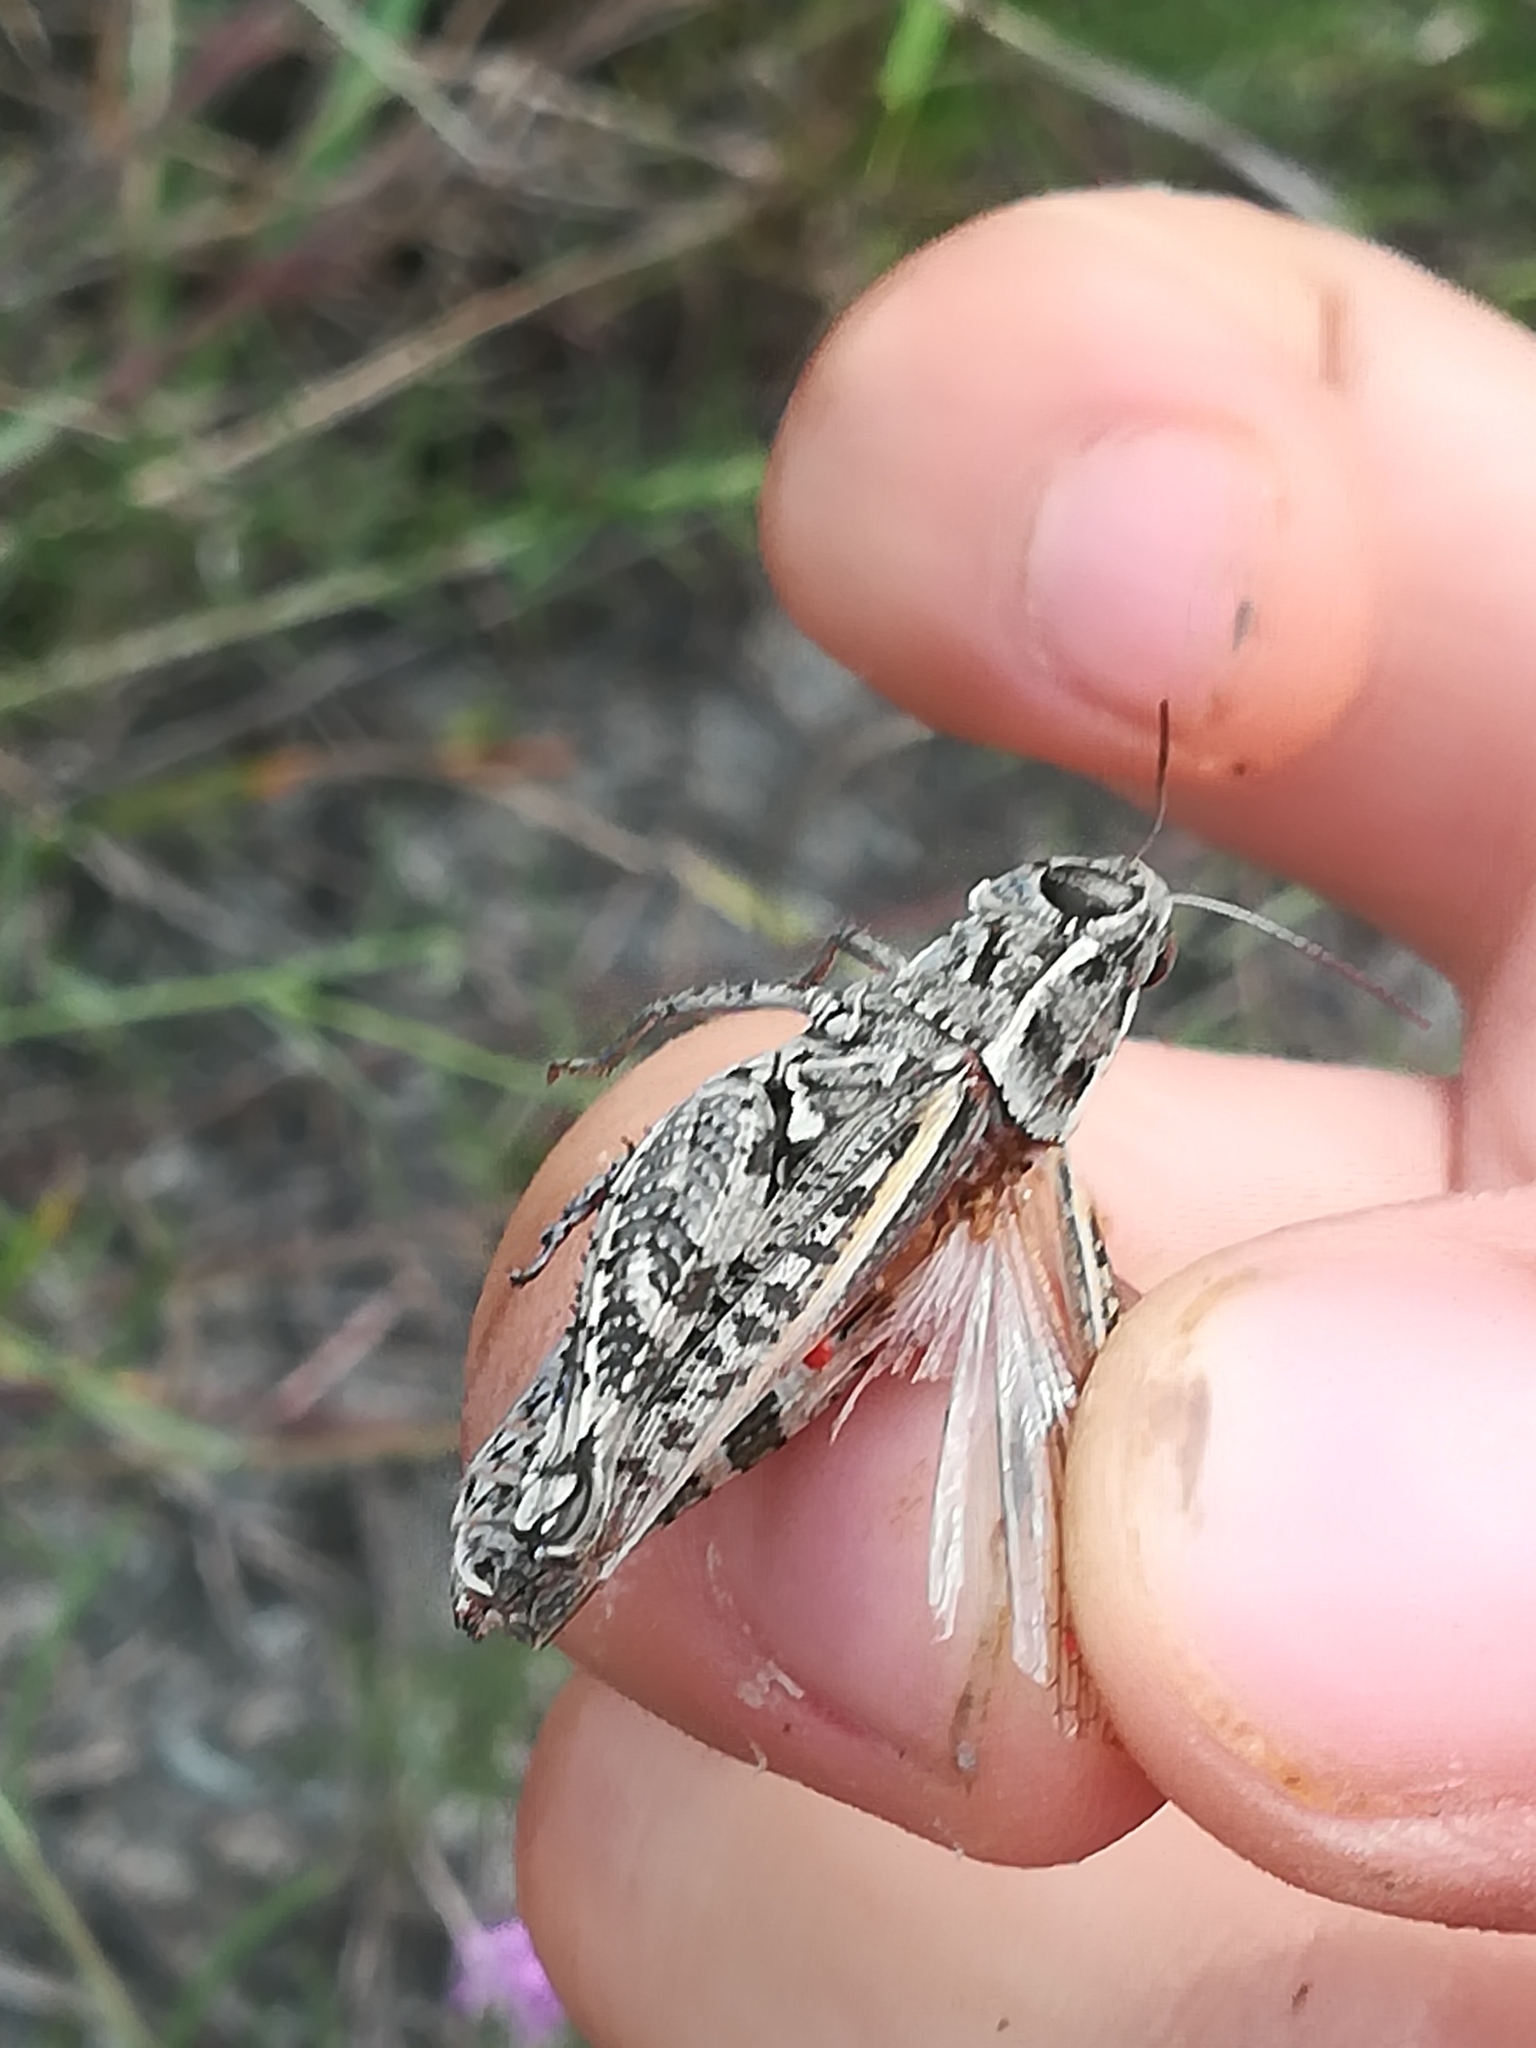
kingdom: Animalia
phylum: Arthropoda
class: Insecta
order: Orthoptera
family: Acrididae
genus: Calliptamus
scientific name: Calliptamus siciliae
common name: Pygmy pincer grasshopper
